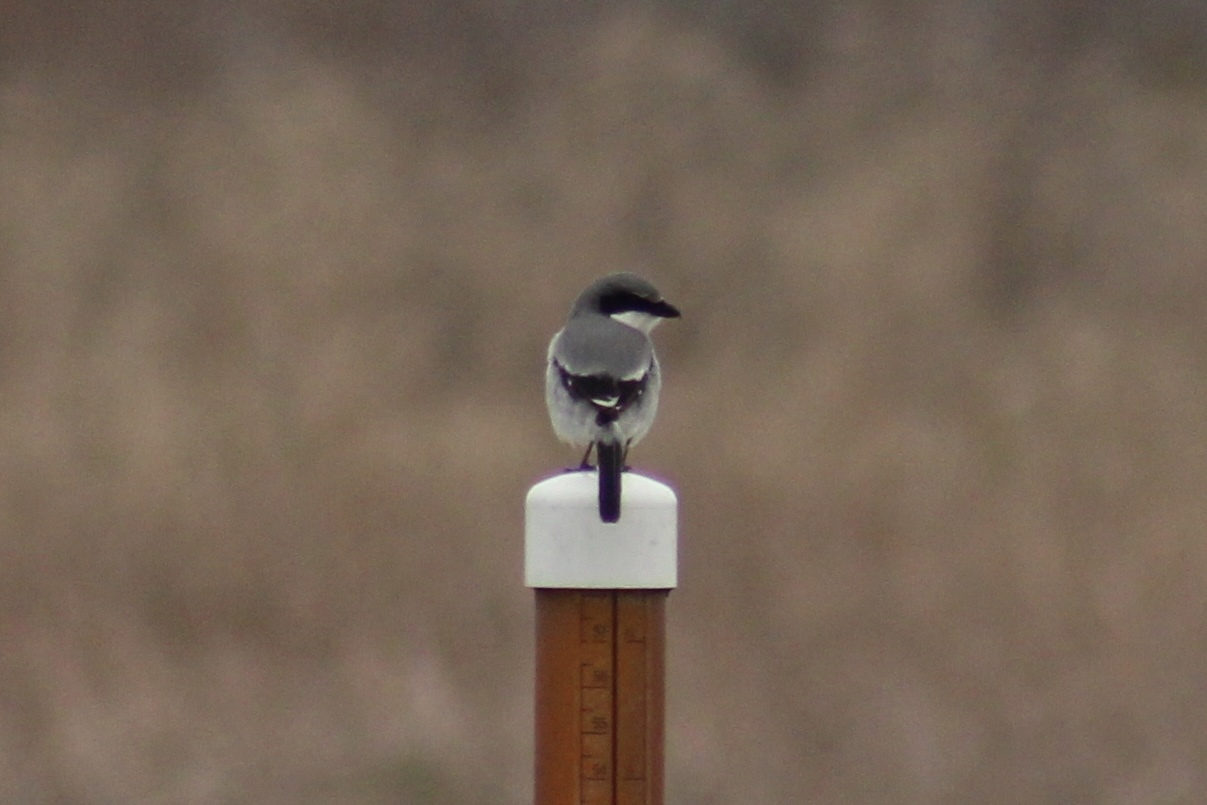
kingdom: Animalia
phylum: Chordata
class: Aves
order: Passeriformes
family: Laniidae
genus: Lanius
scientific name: Lanius ludovicianus
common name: Loggerhead shrike
